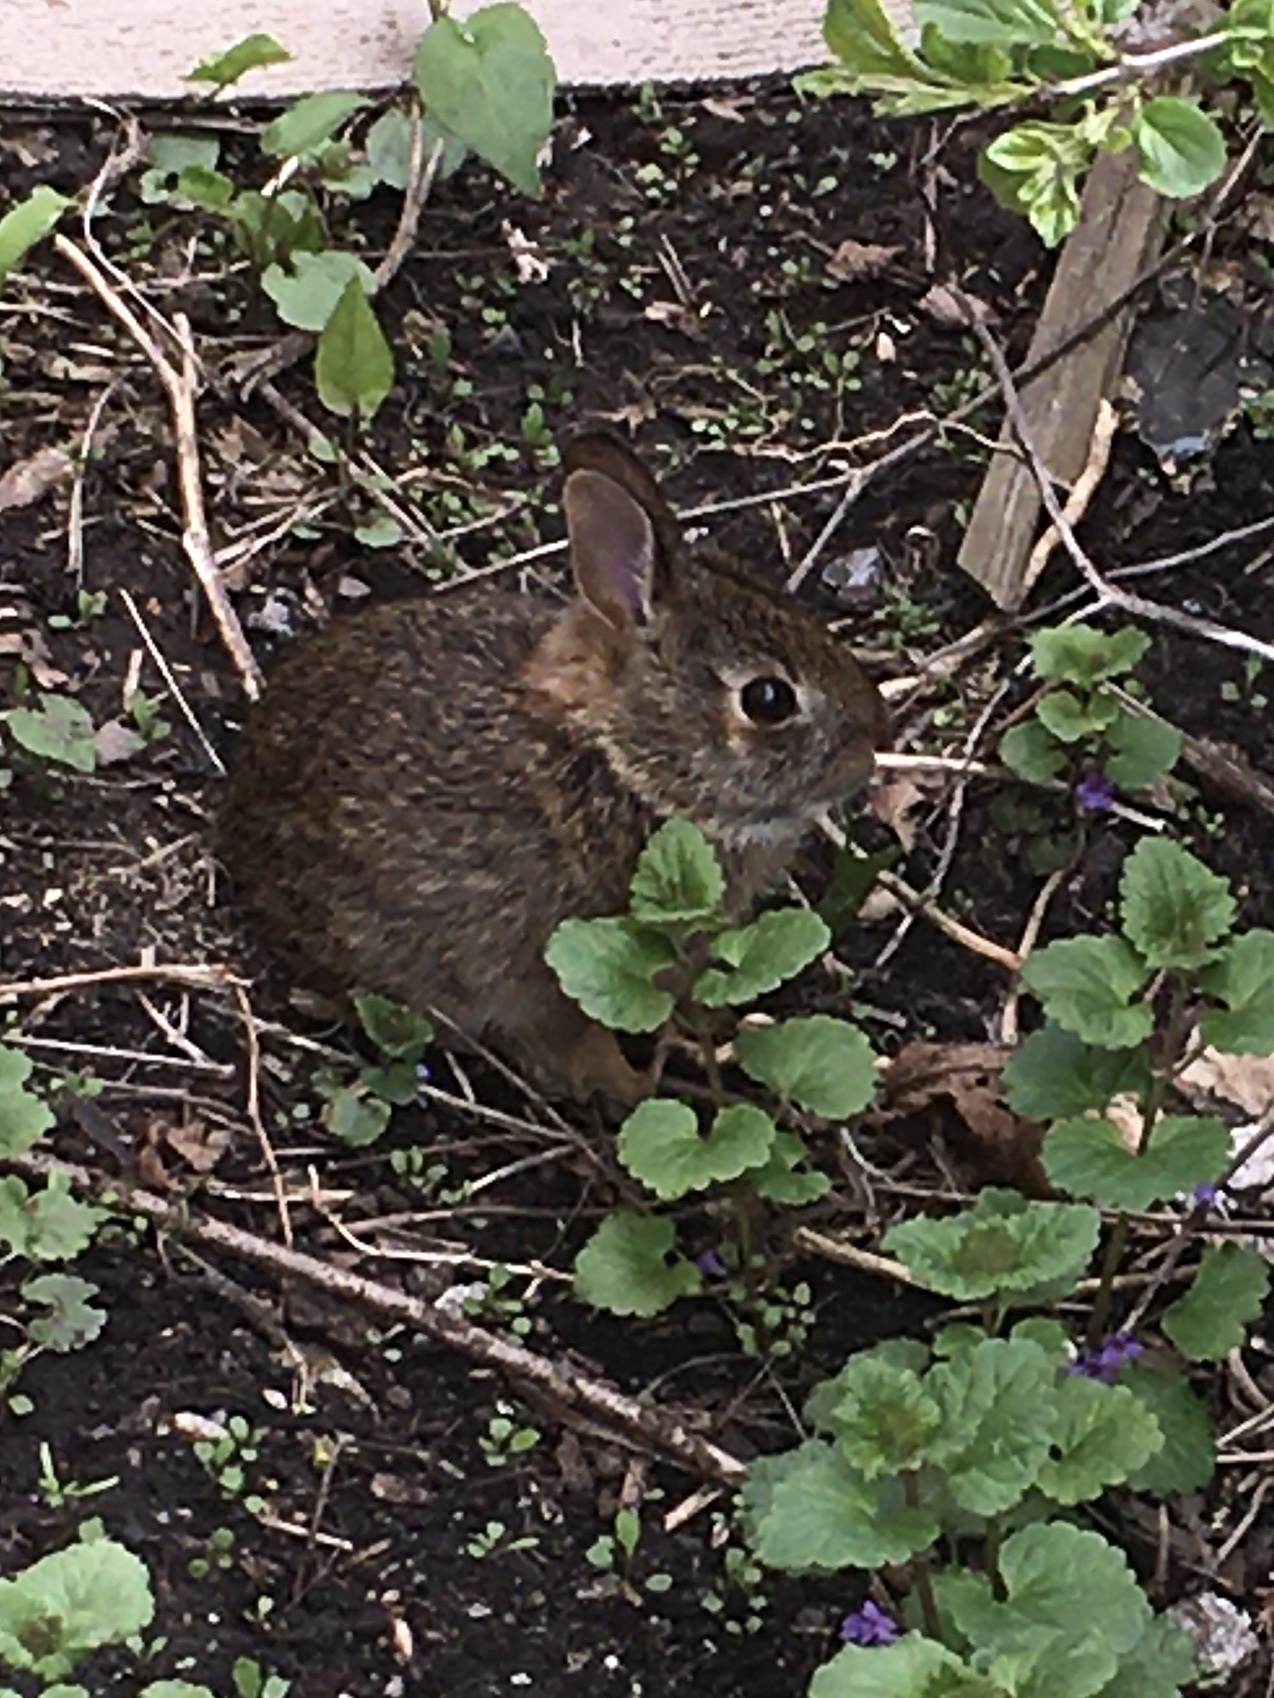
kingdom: Animalia
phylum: Chordata
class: Mammalia
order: Lagomorpha
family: Leporidae
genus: Sylvilagus
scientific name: Sylvilagus floridanus
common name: Eastern cottontail
